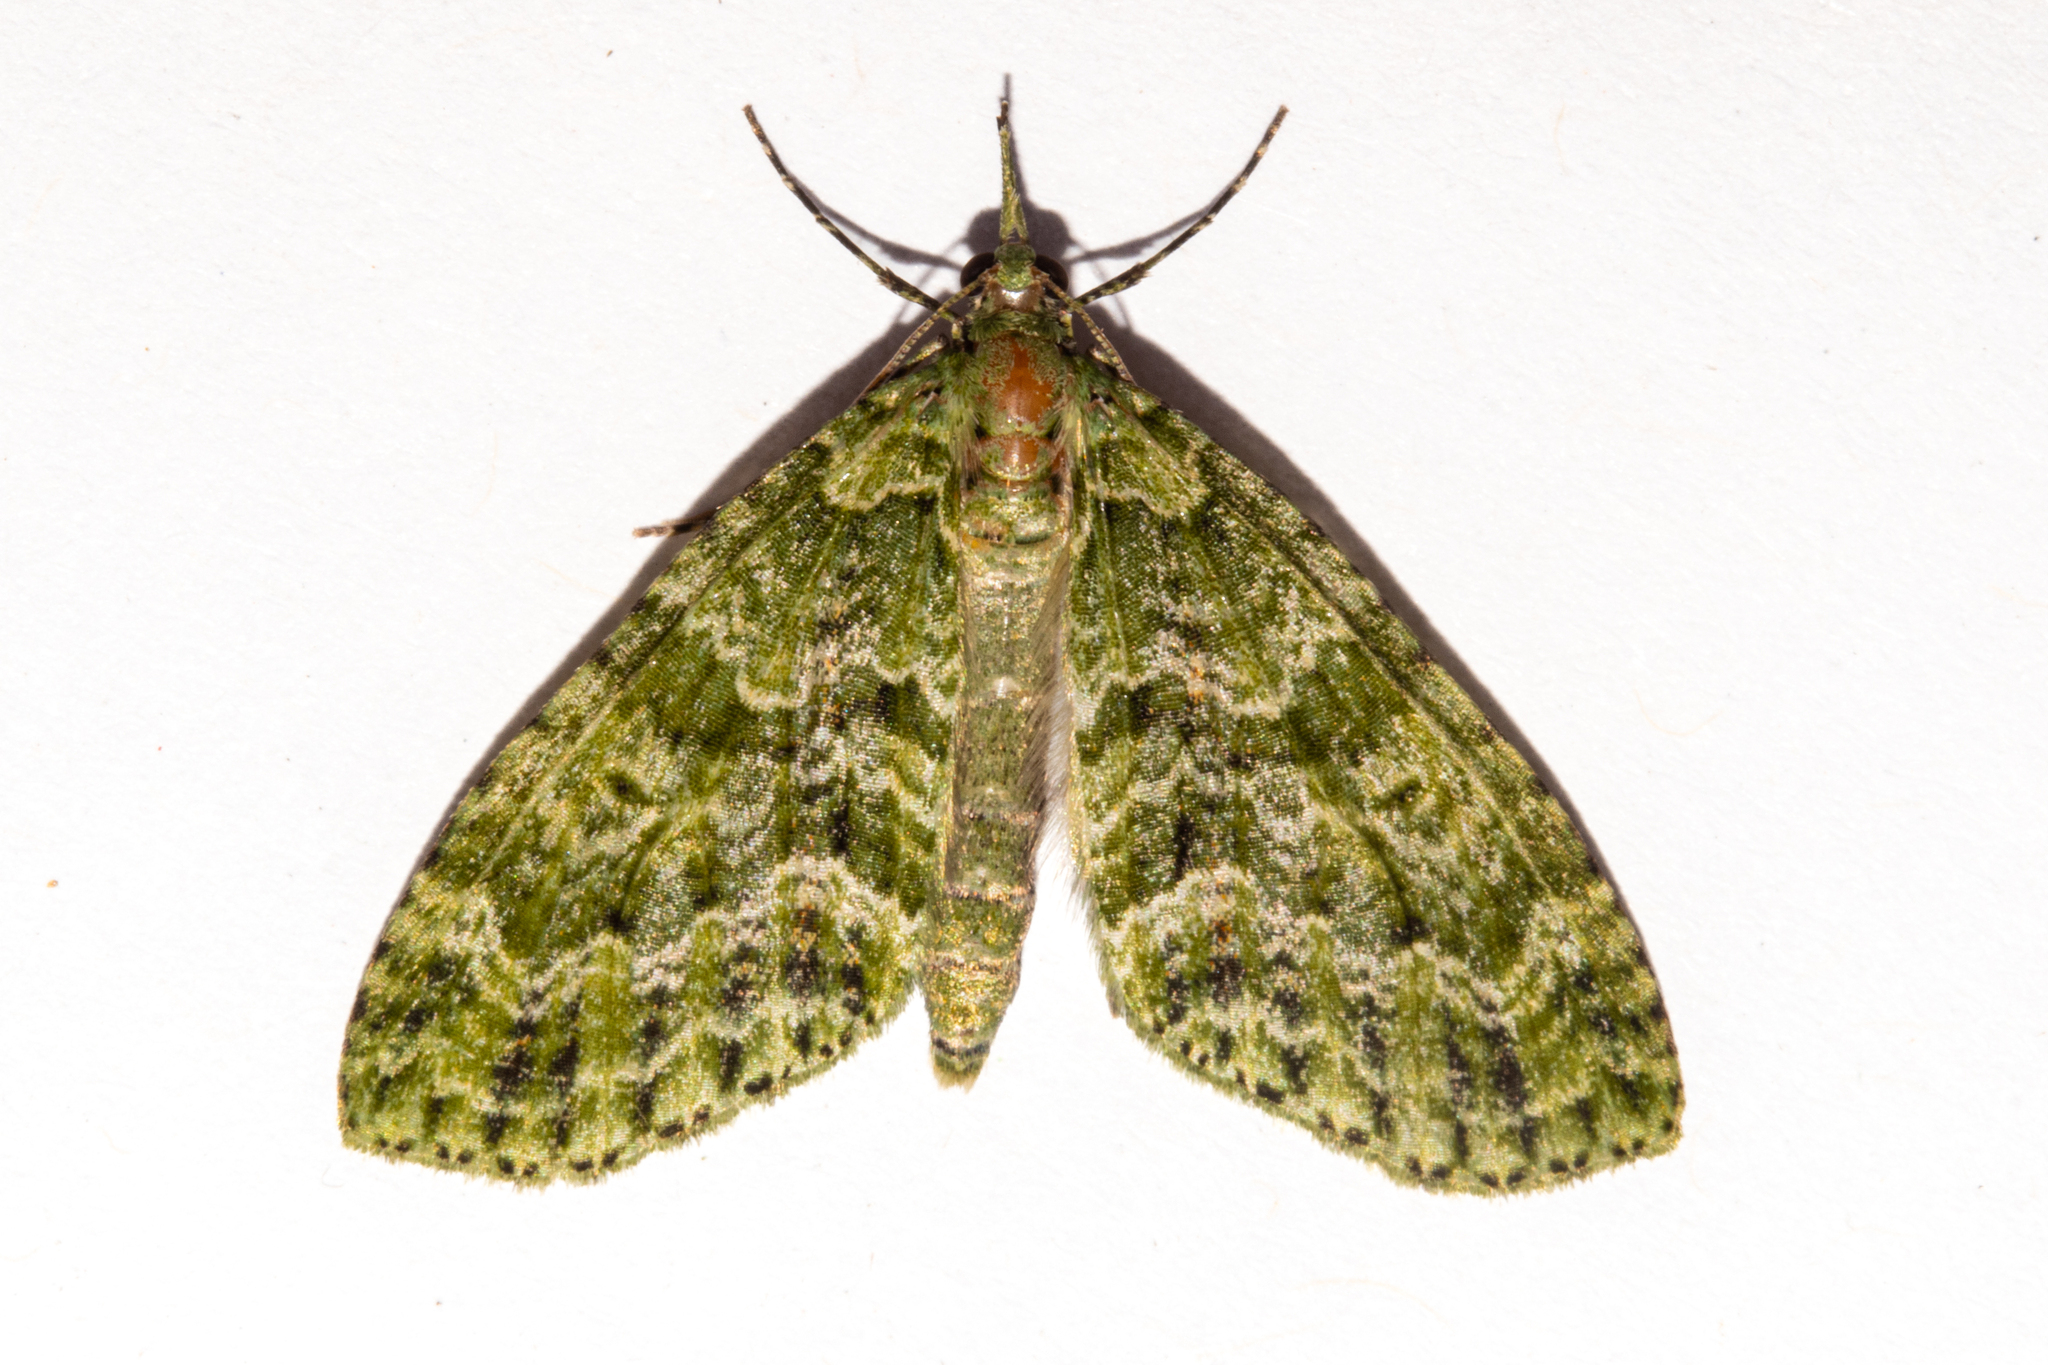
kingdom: Animalia
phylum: Arthropoda
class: Insecta
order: Lepidoptera
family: Geometridae
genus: Tatosoma
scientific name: Tatosoma tipulata
